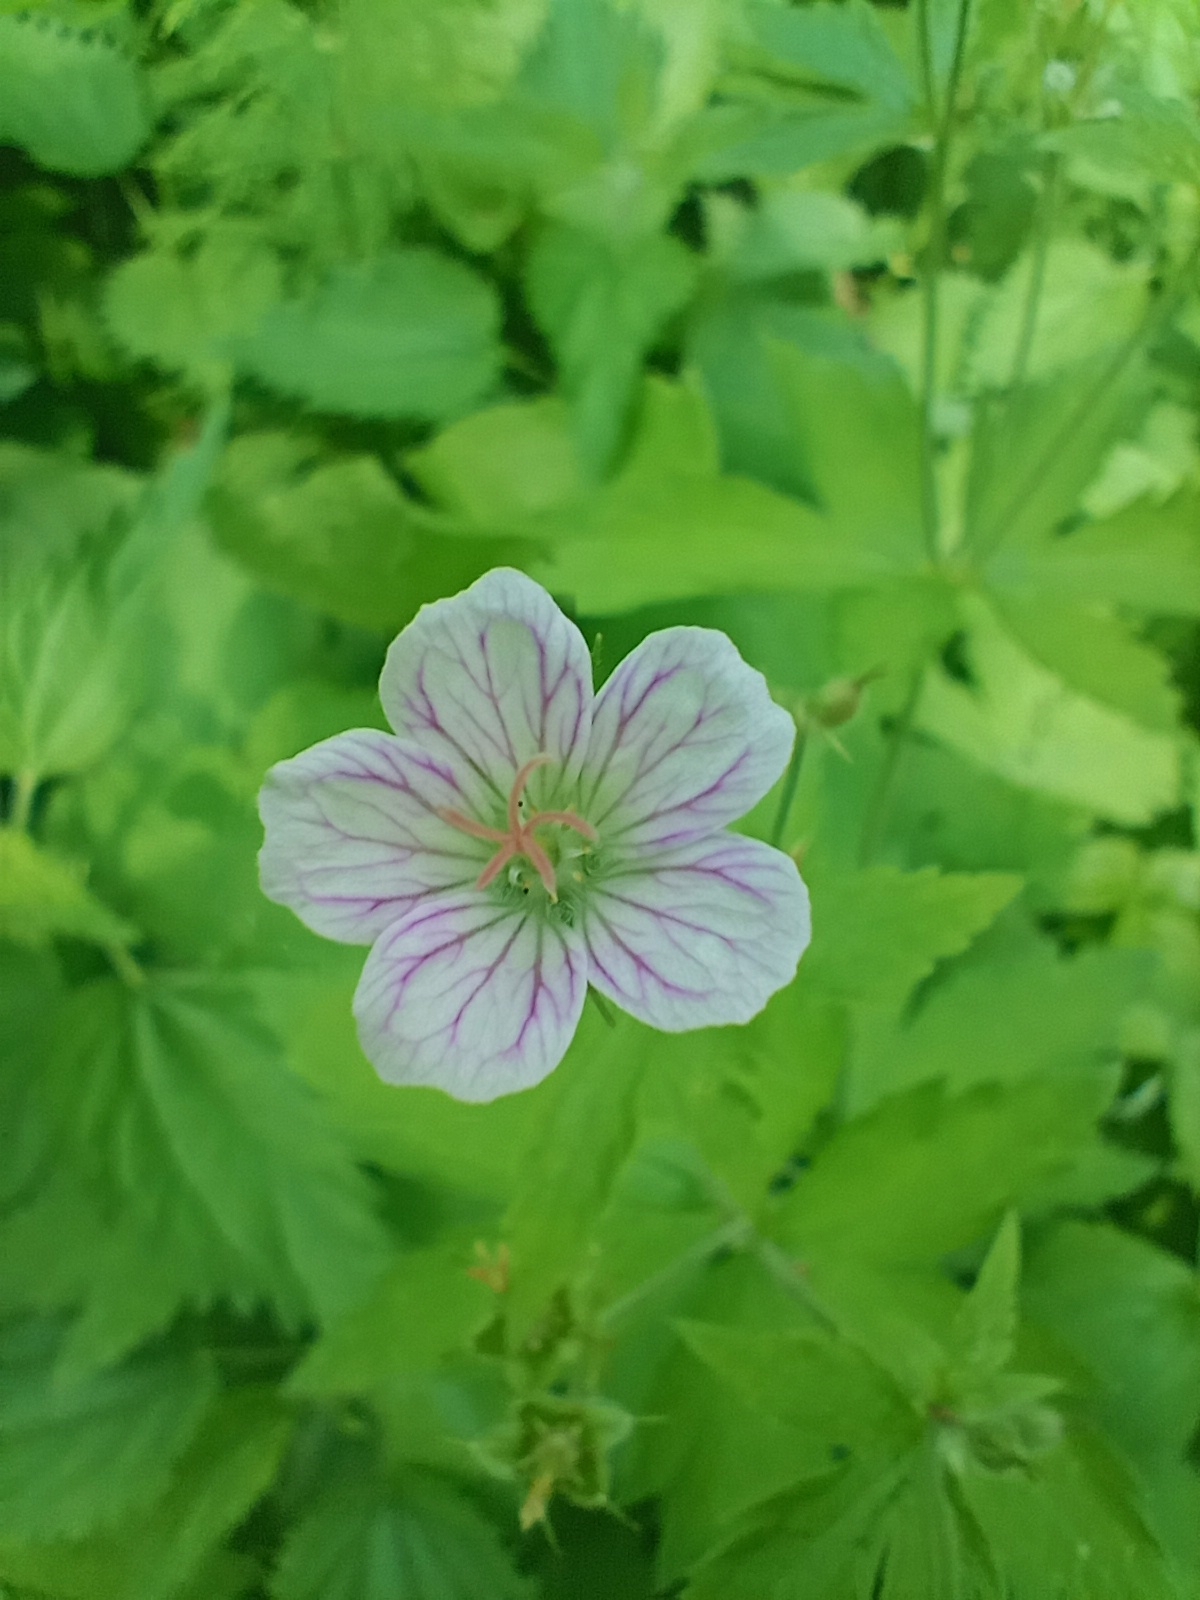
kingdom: Plantae
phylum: Tracheophyta
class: Magnoliopsida
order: Geraniales
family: Geraniaceae
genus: Geranium
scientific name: Geranium sylvaticum
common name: Wood crane's-bill
